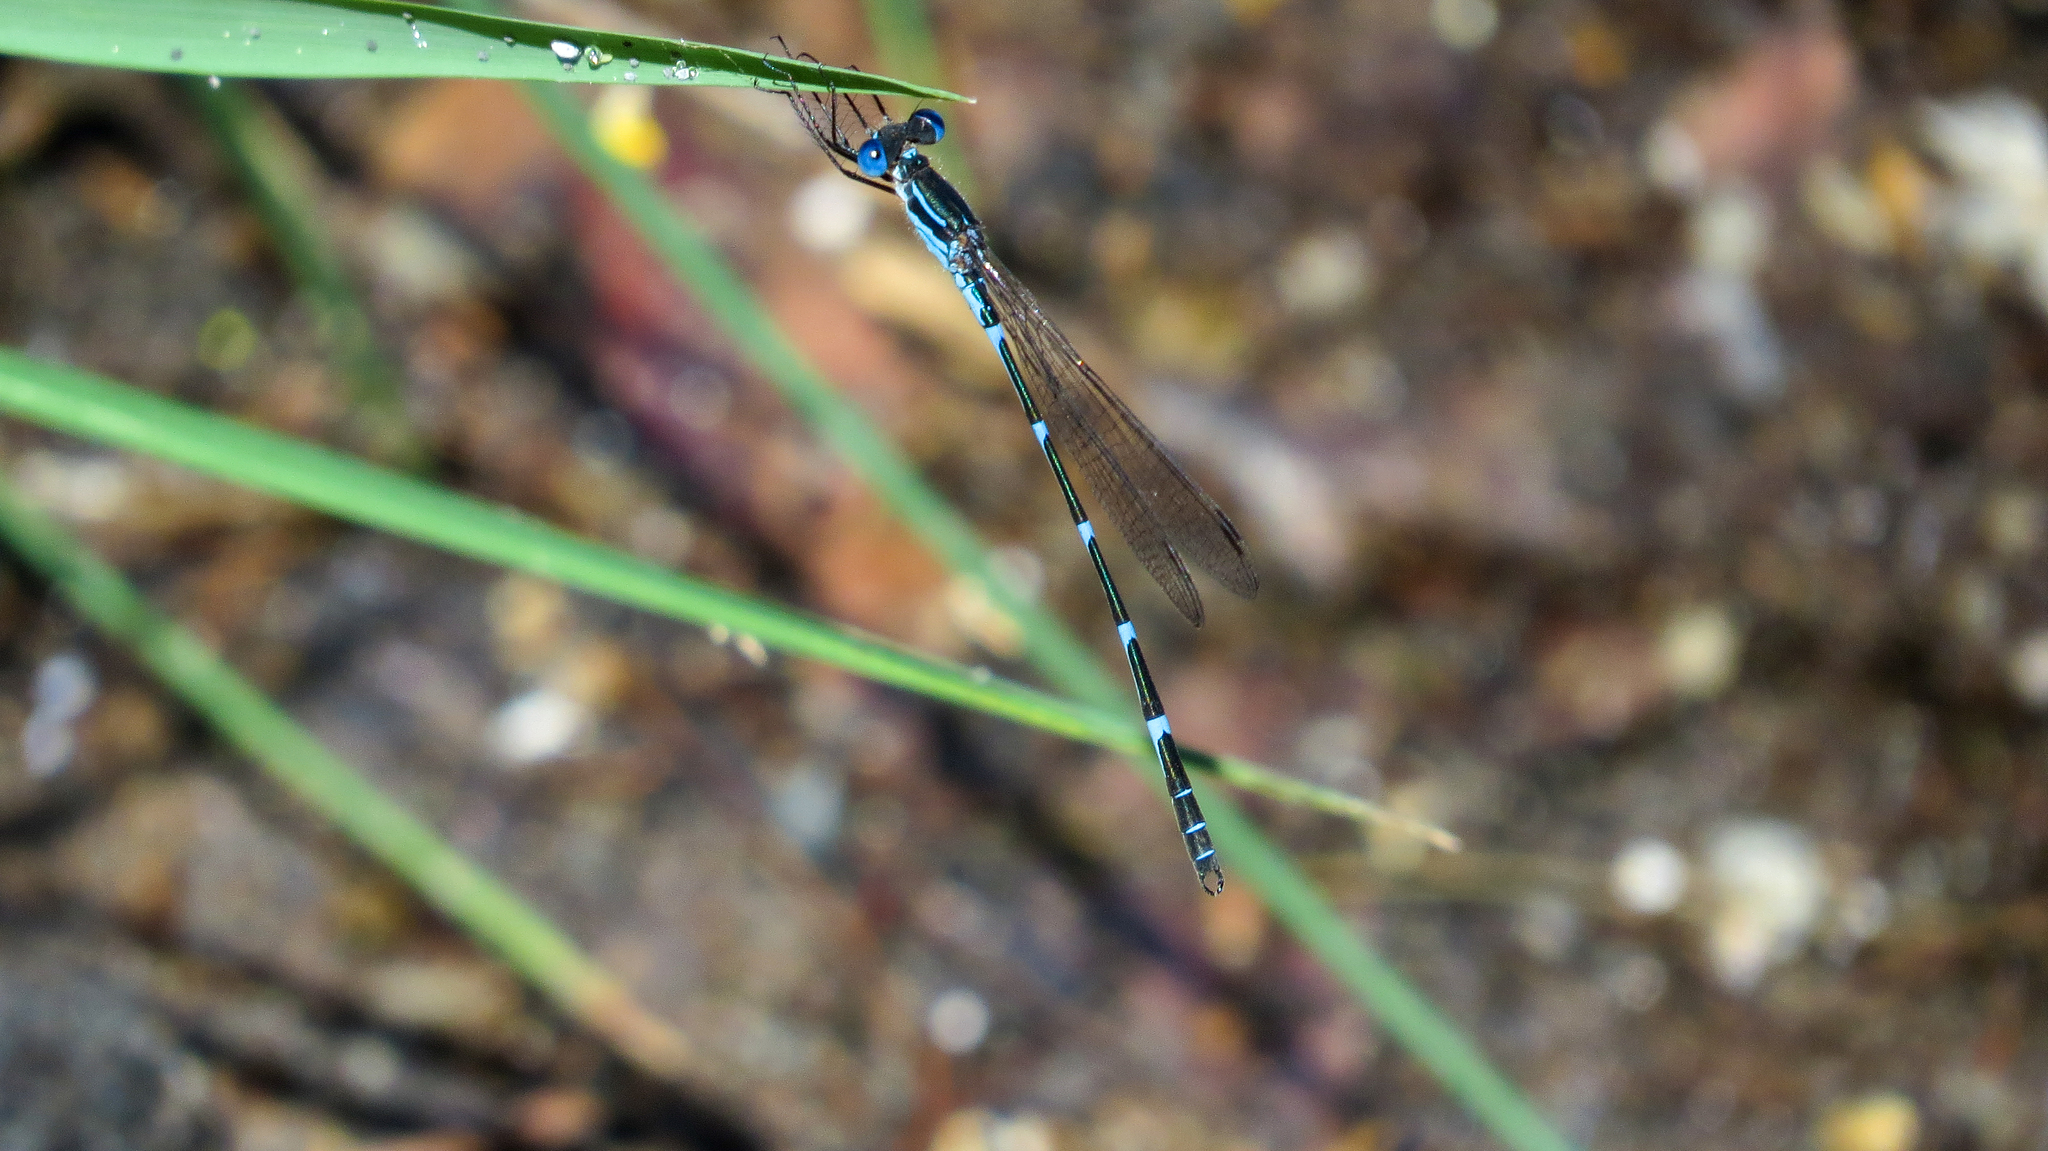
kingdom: Animalia
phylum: Arthropoda
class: Insecta
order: Odonata
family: Lestidae
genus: Austrolestes
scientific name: Austrolestes minjerriba
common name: Dune ringtail
